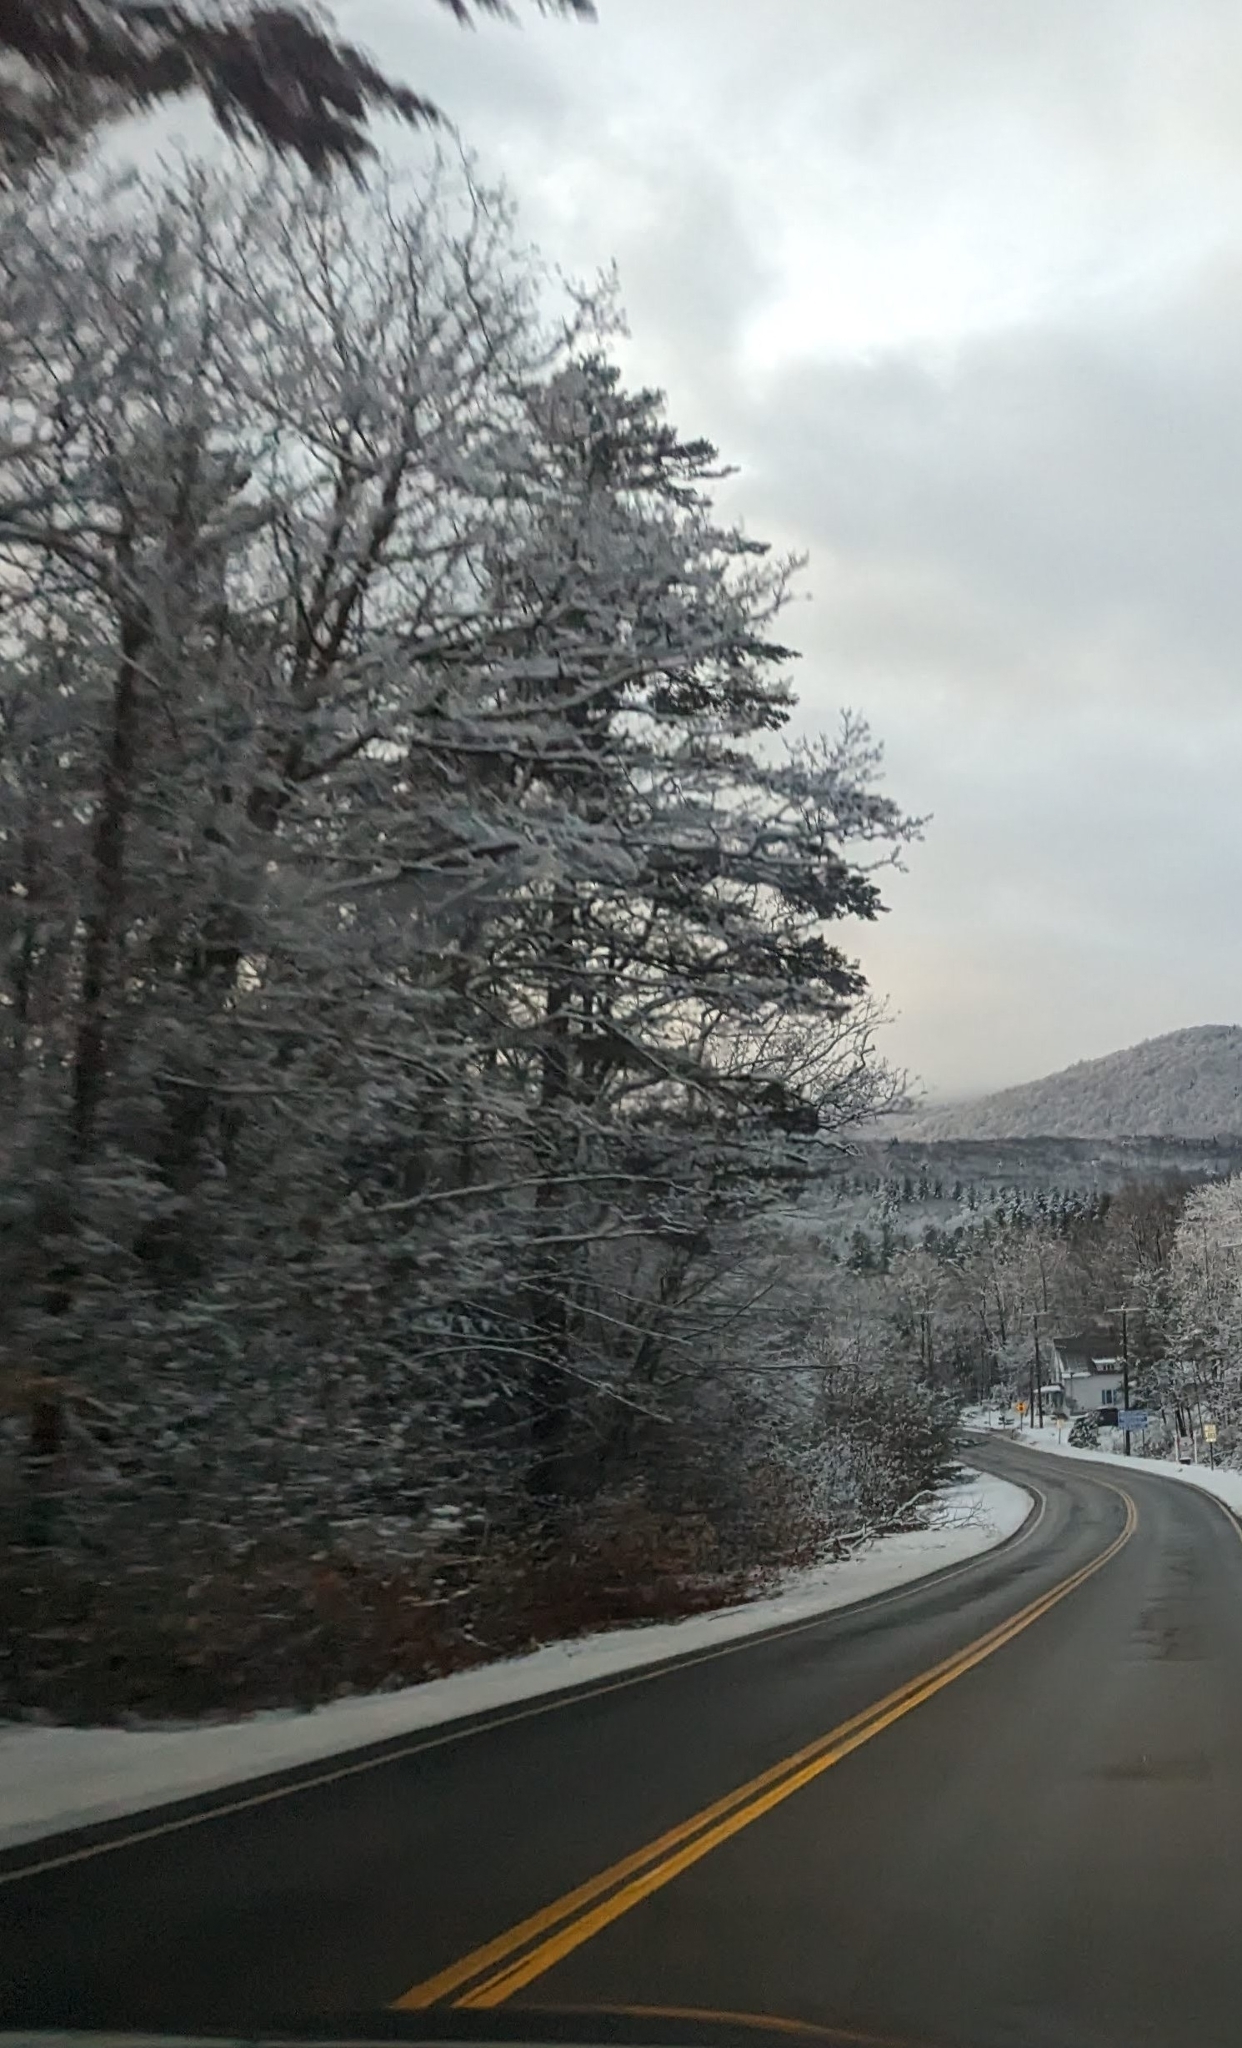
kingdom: Plantae
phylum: Tracheophyta
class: Pinopsida
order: Pinales
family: Pinaceae
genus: Pinus
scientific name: Pinus strobus
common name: Weymouth pine
